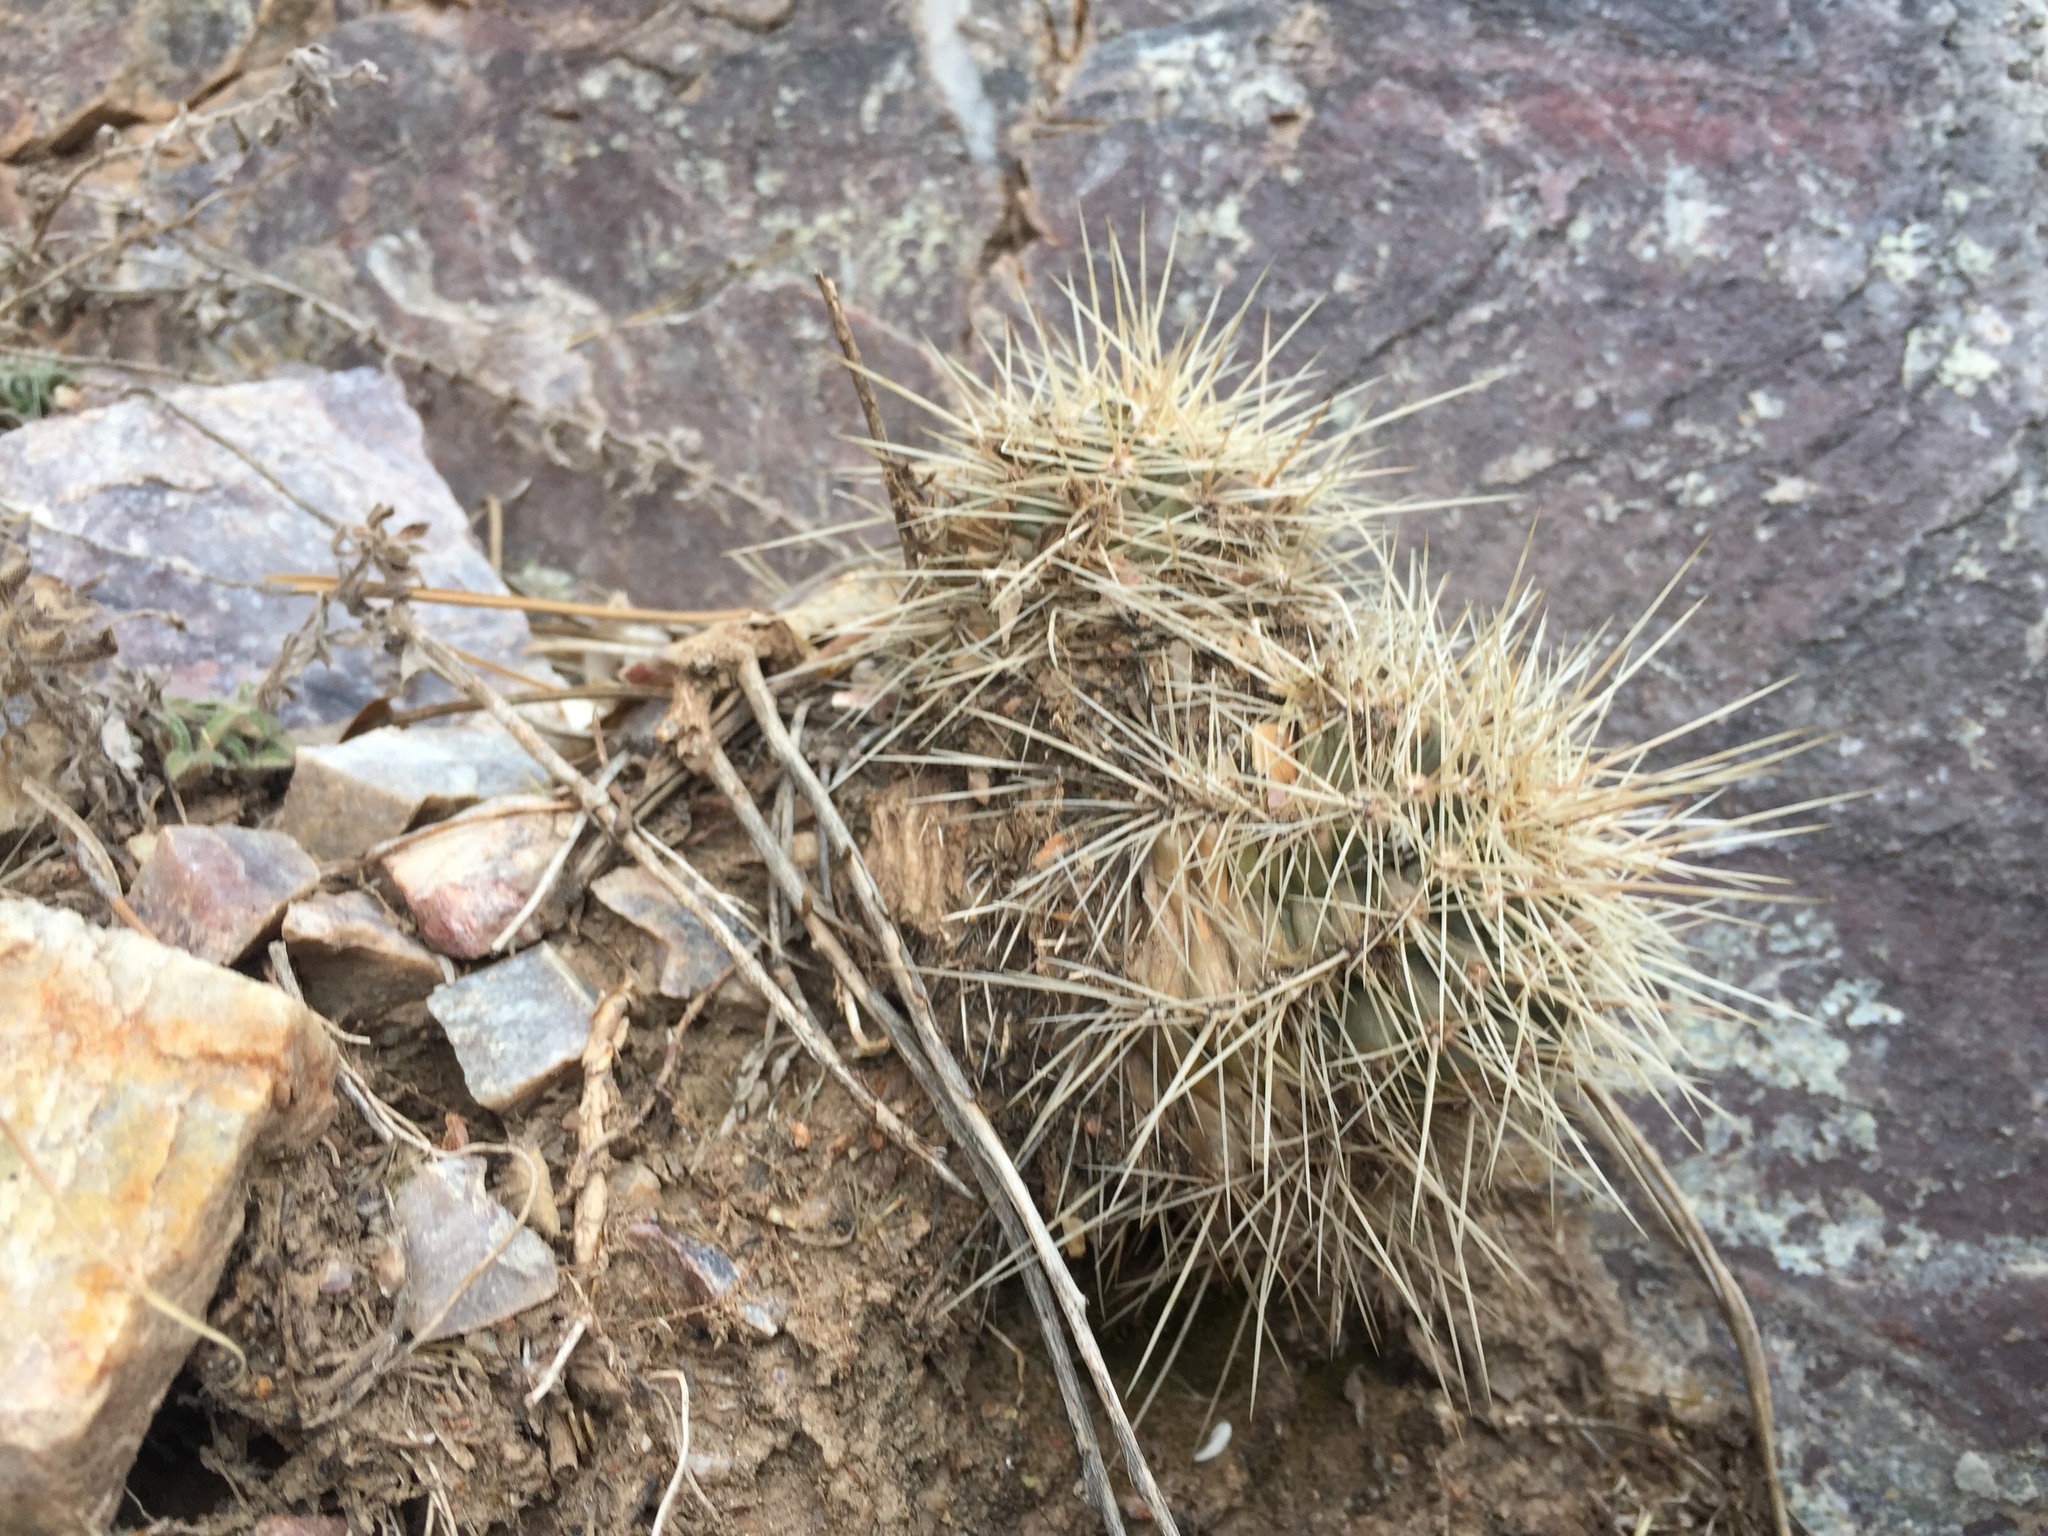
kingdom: Plantae
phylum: Tracheophyta
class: Magnoliopsida
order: Caryophyllales
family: Cactaceae
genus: Echinocereus
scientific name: Echinocereus coccineus
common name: Scarlet hedgehog cactus
